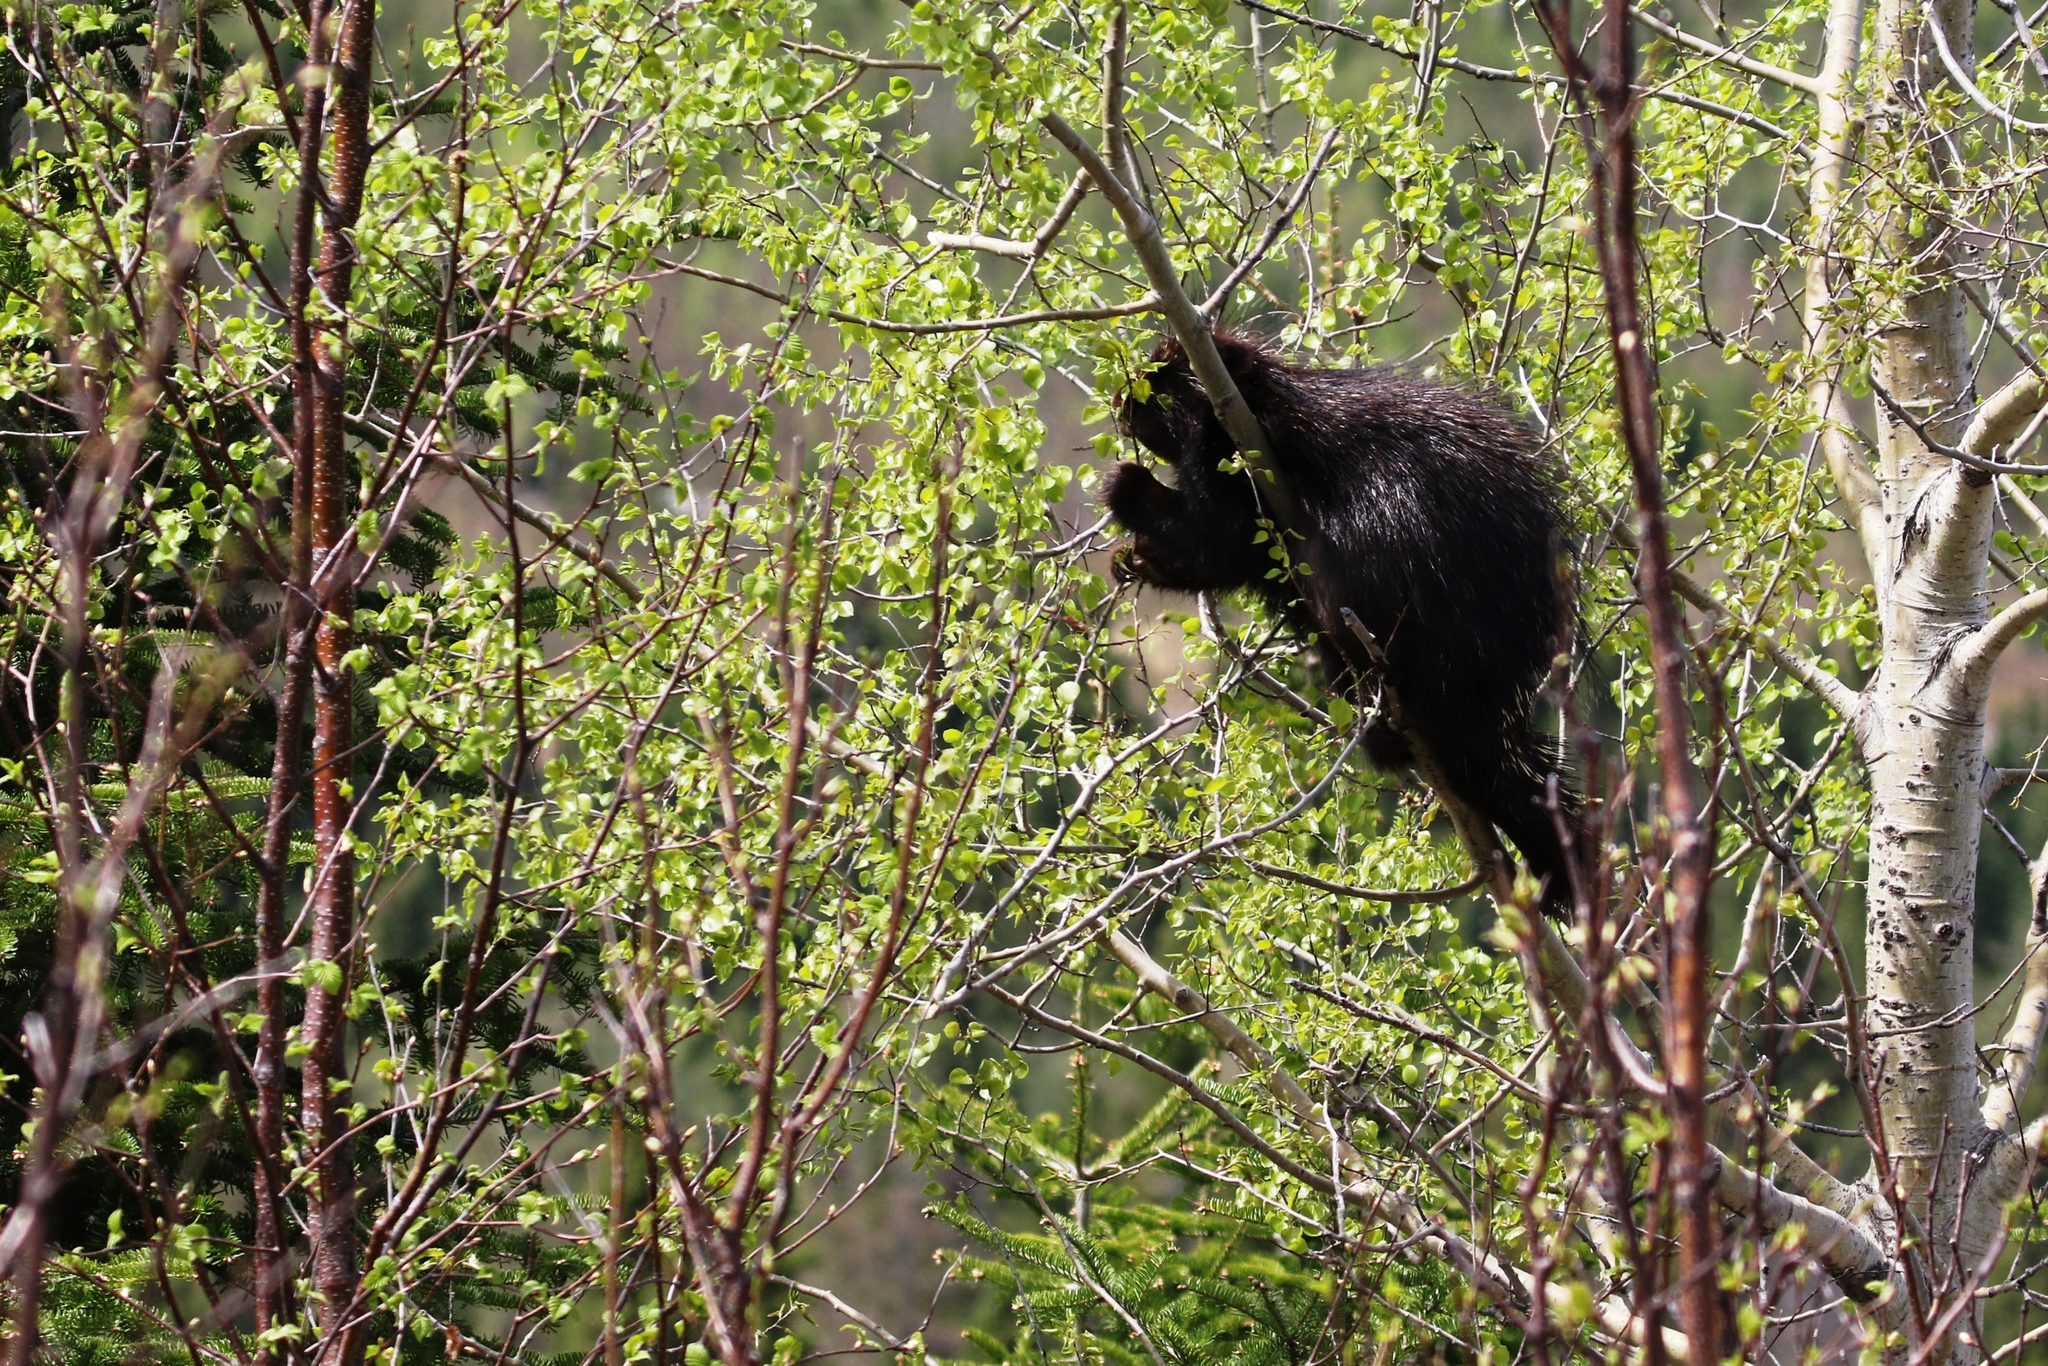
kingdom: Animalia
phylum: Chordata
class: Mammalia
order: Rodentia
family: Erethizontidae
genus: Erethizon
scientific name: Erethizon dorsatus
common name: North american porcupine
